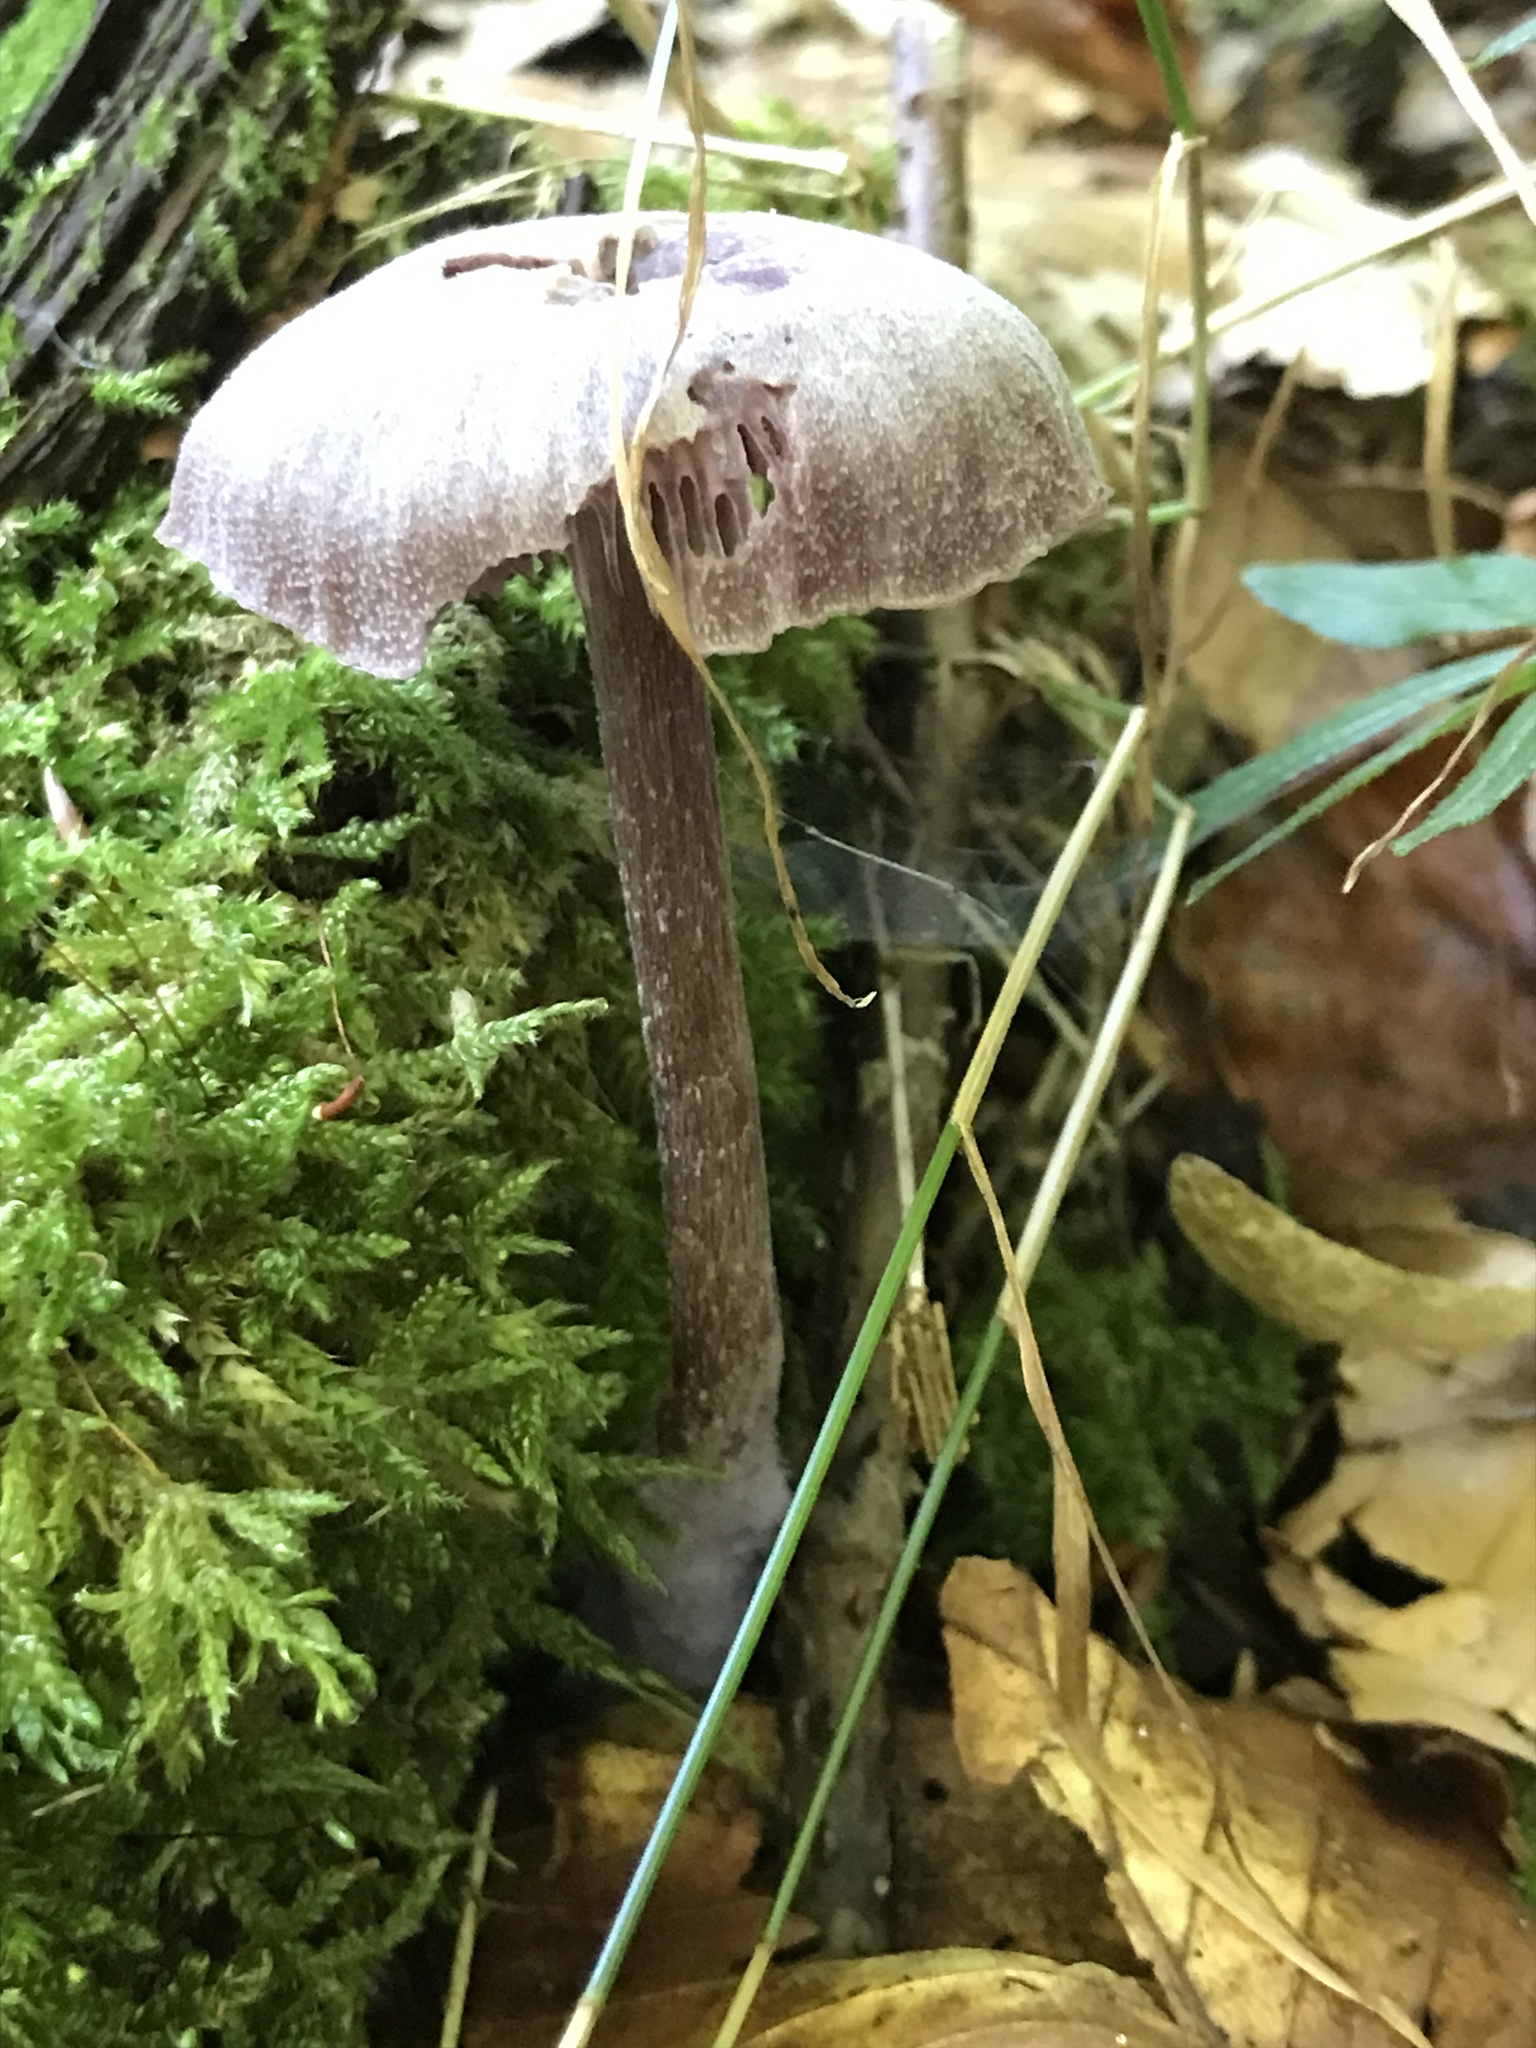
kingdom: Fungi
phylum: Basidiomycota
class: Agaricomycetes
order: Agaricales
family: Hydnangiaceae
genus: Laccaria
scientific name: Laccaria amethystina
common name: Amethyst deceiver
